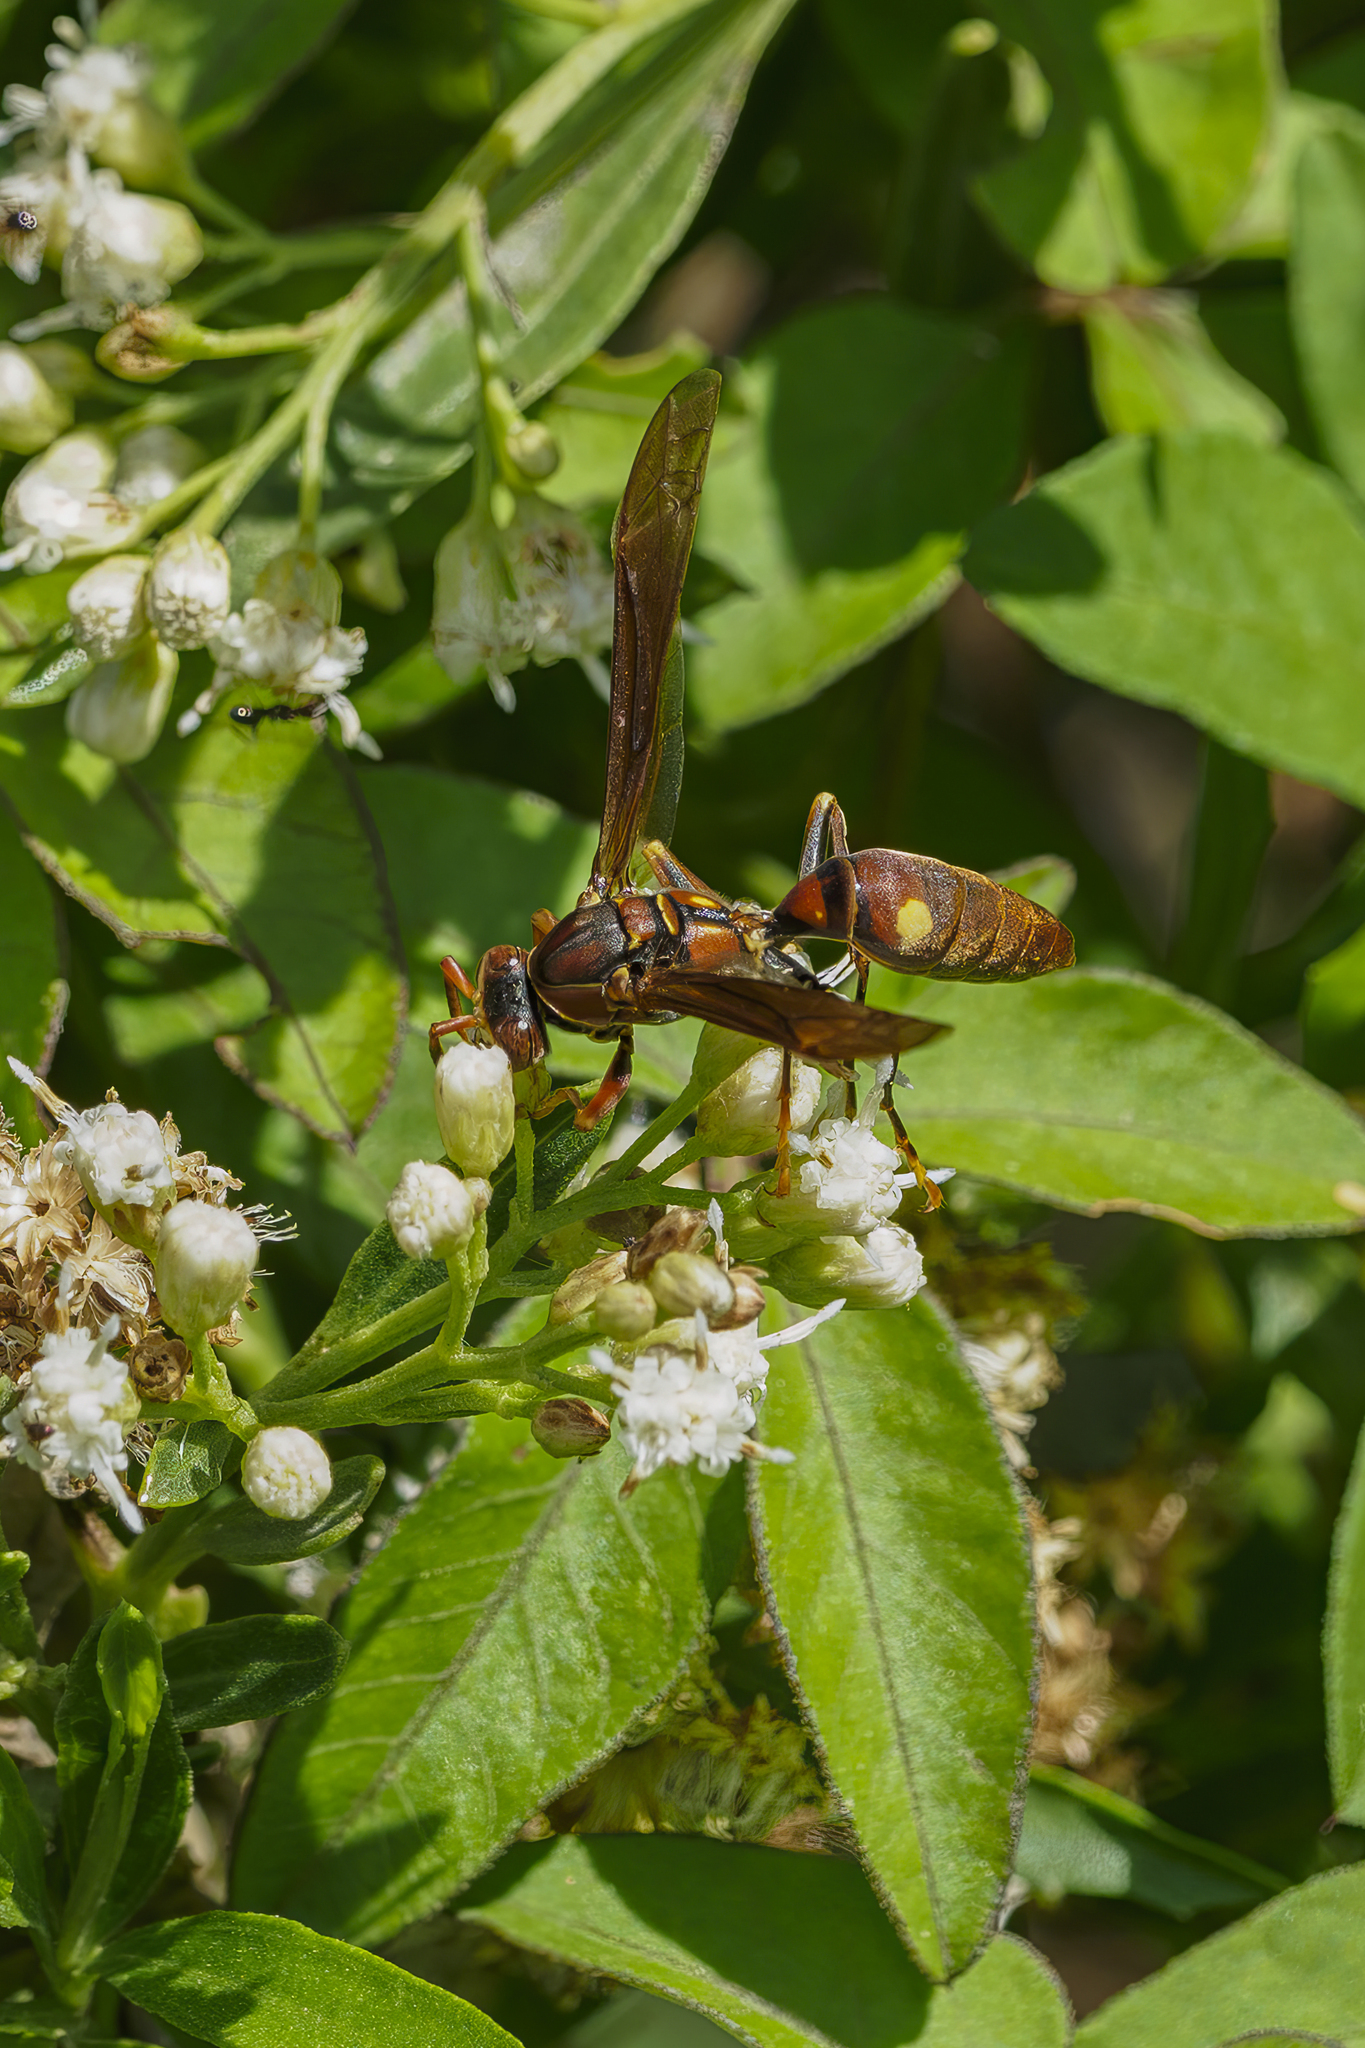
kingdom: Animalia
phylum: Arthropoda
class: Insecta
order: Hymenoptera
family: Eumenidae
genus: Polistes
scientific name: Polistes simillimus
